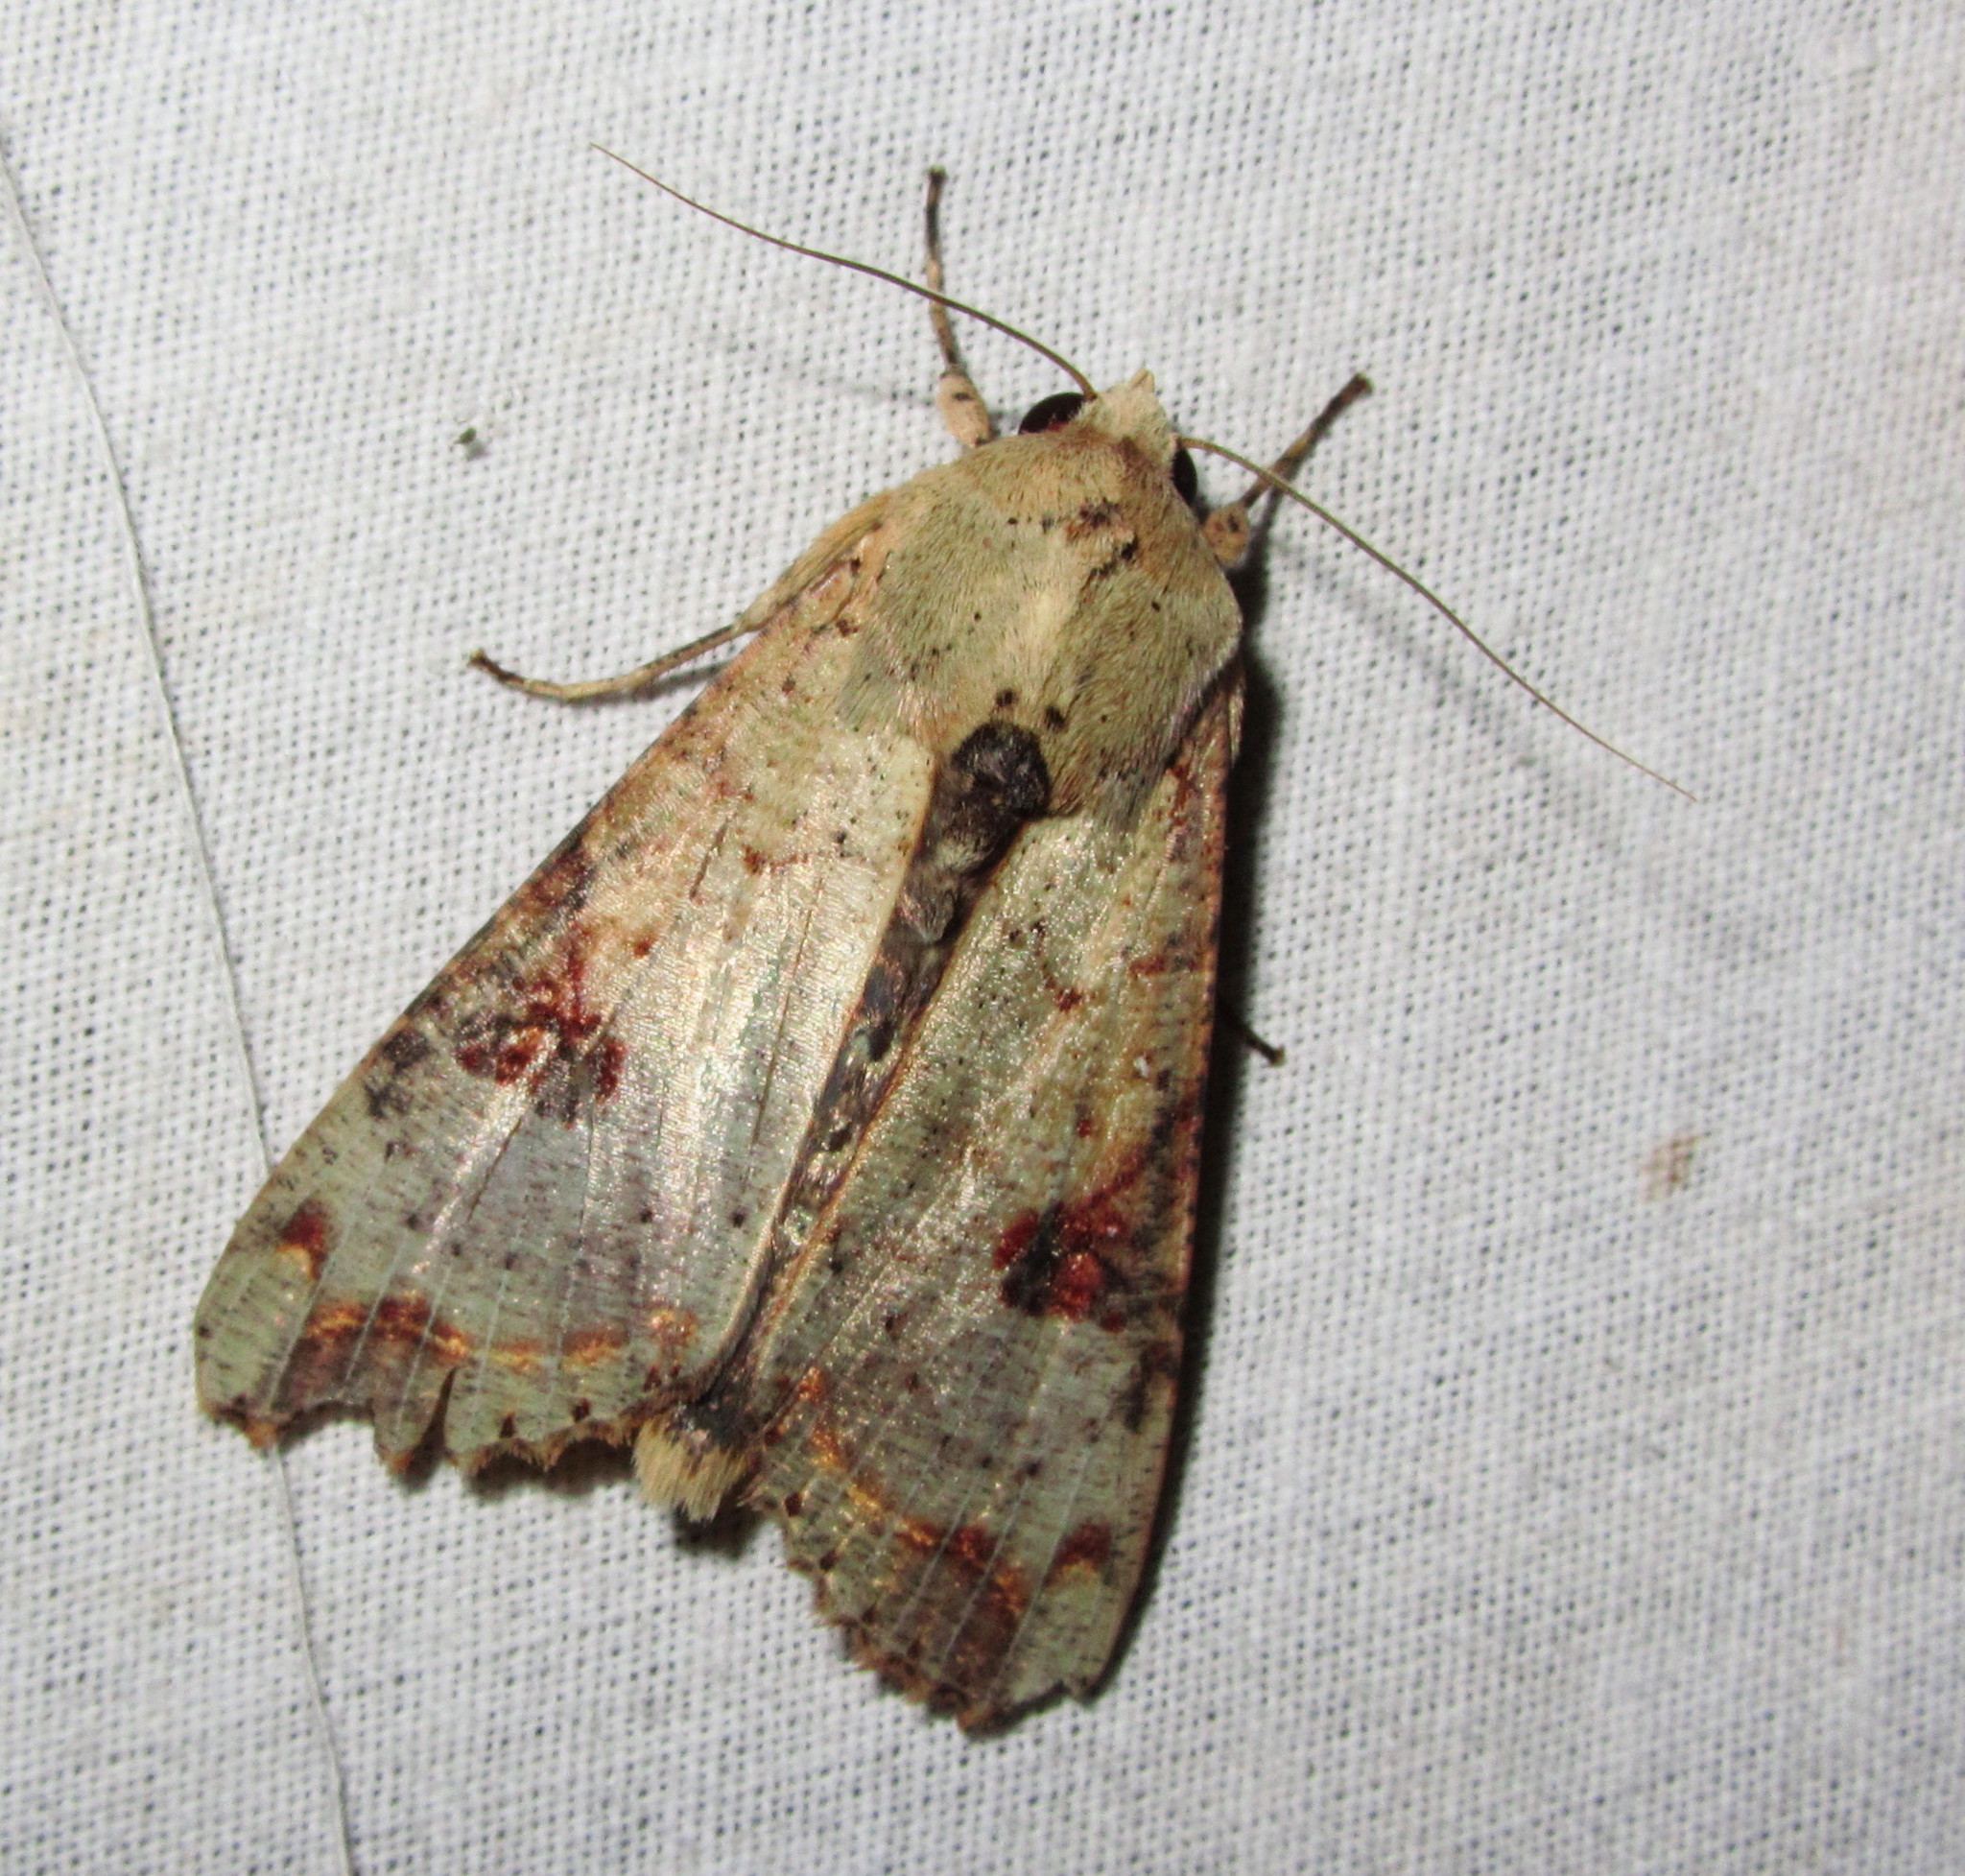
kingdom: Animalia
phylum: Arthropoda
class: Insecta
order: Lepidoptera
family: Noctuidae
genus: Tiracola
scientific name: Tiracola plagiata
